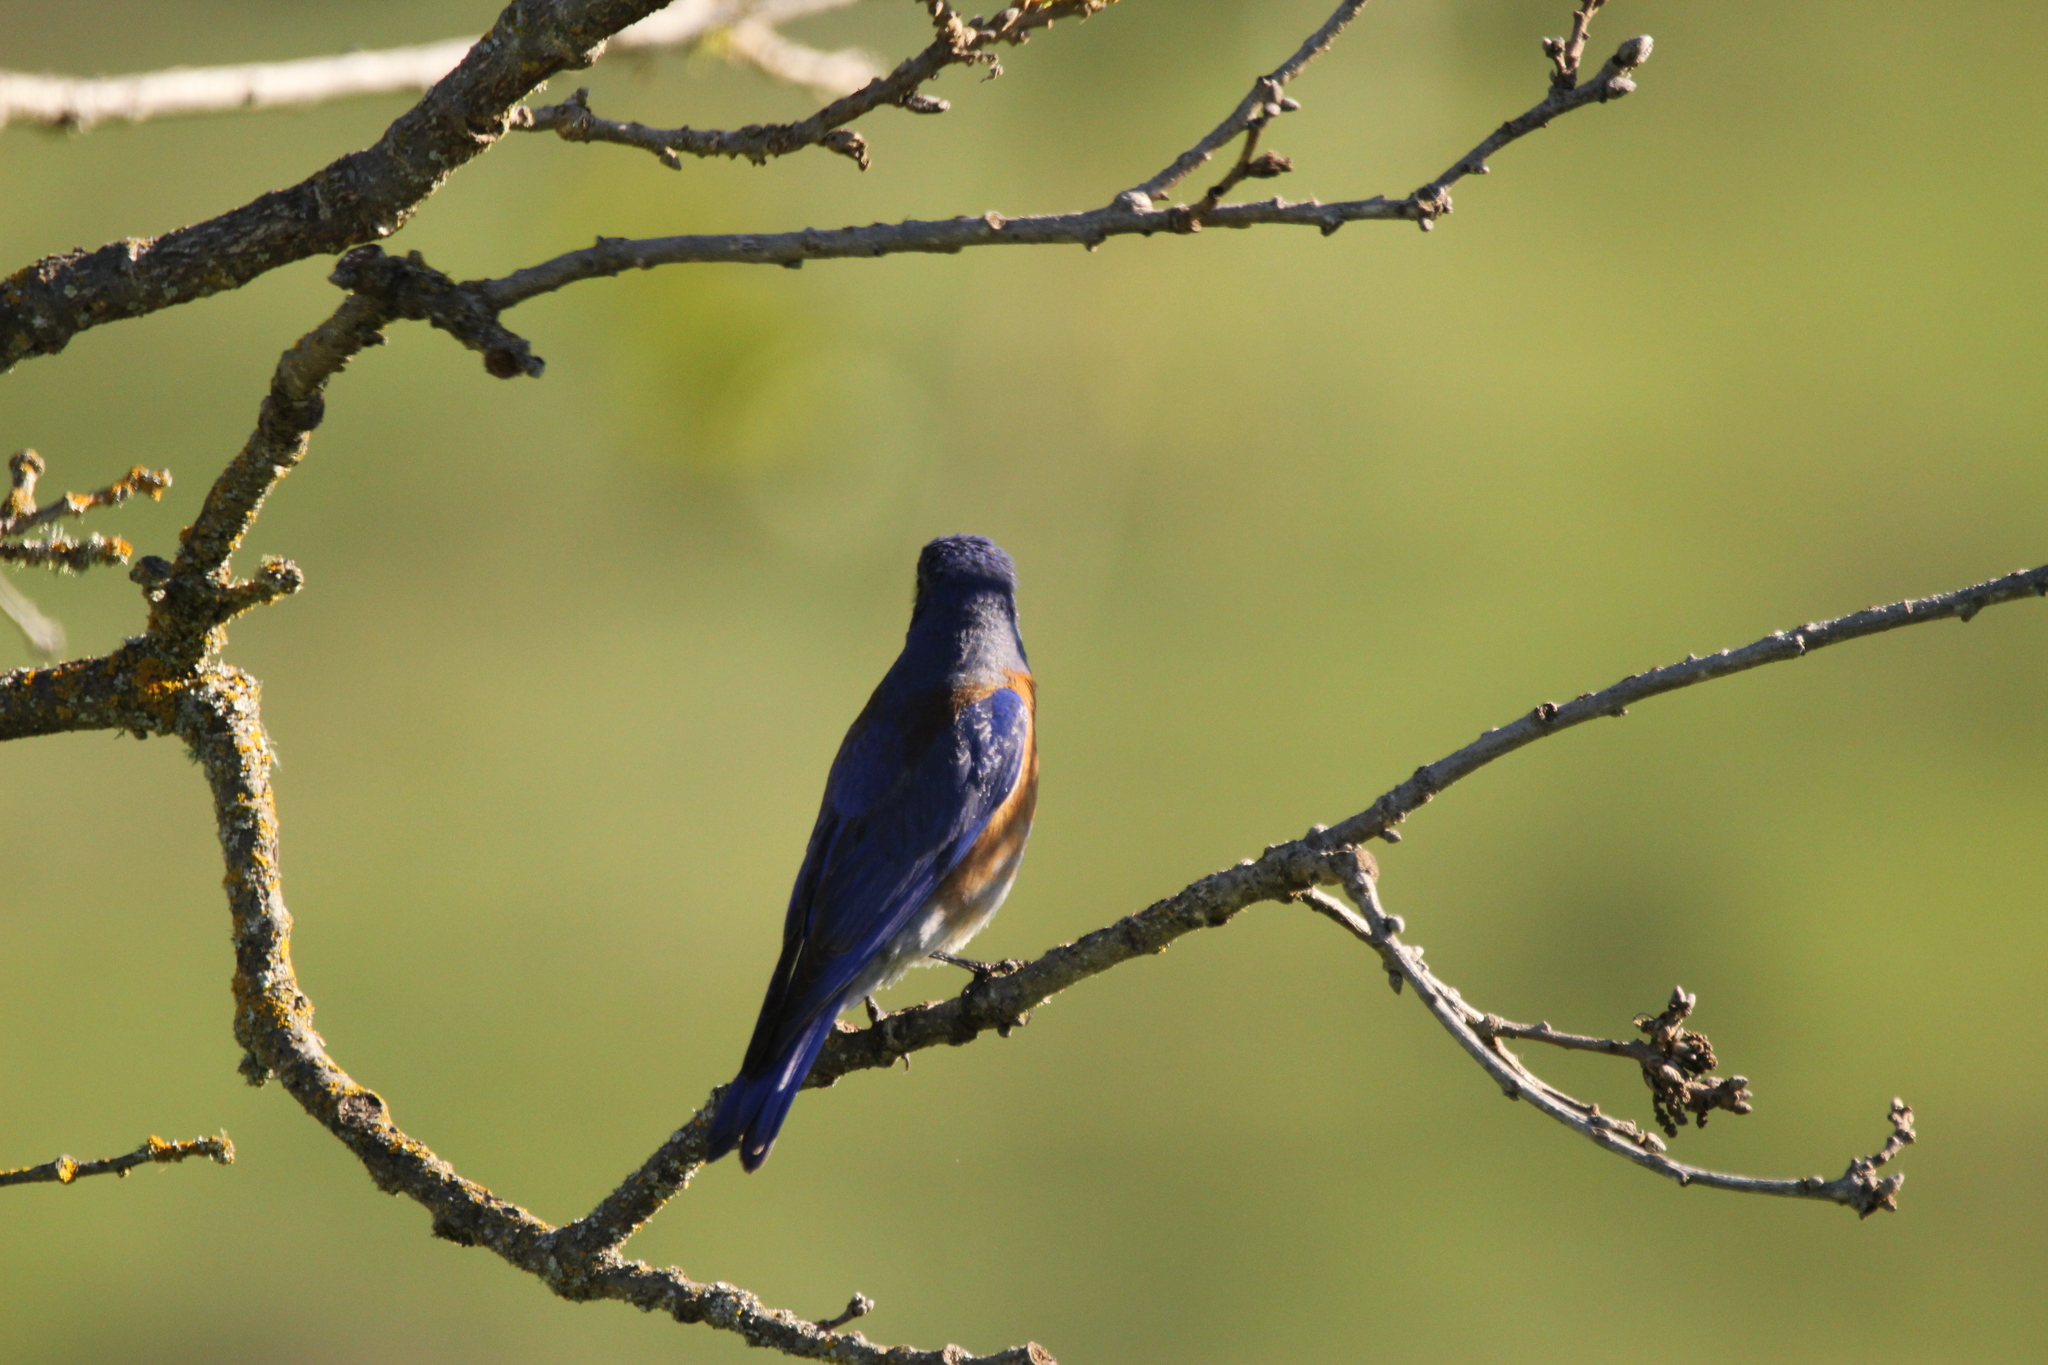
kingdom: Animalia
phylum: Chordata
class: Aves
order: Passeriformes
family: Turdidae
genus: Sialia
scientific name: Sialia mexicana
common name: Western bluebird
